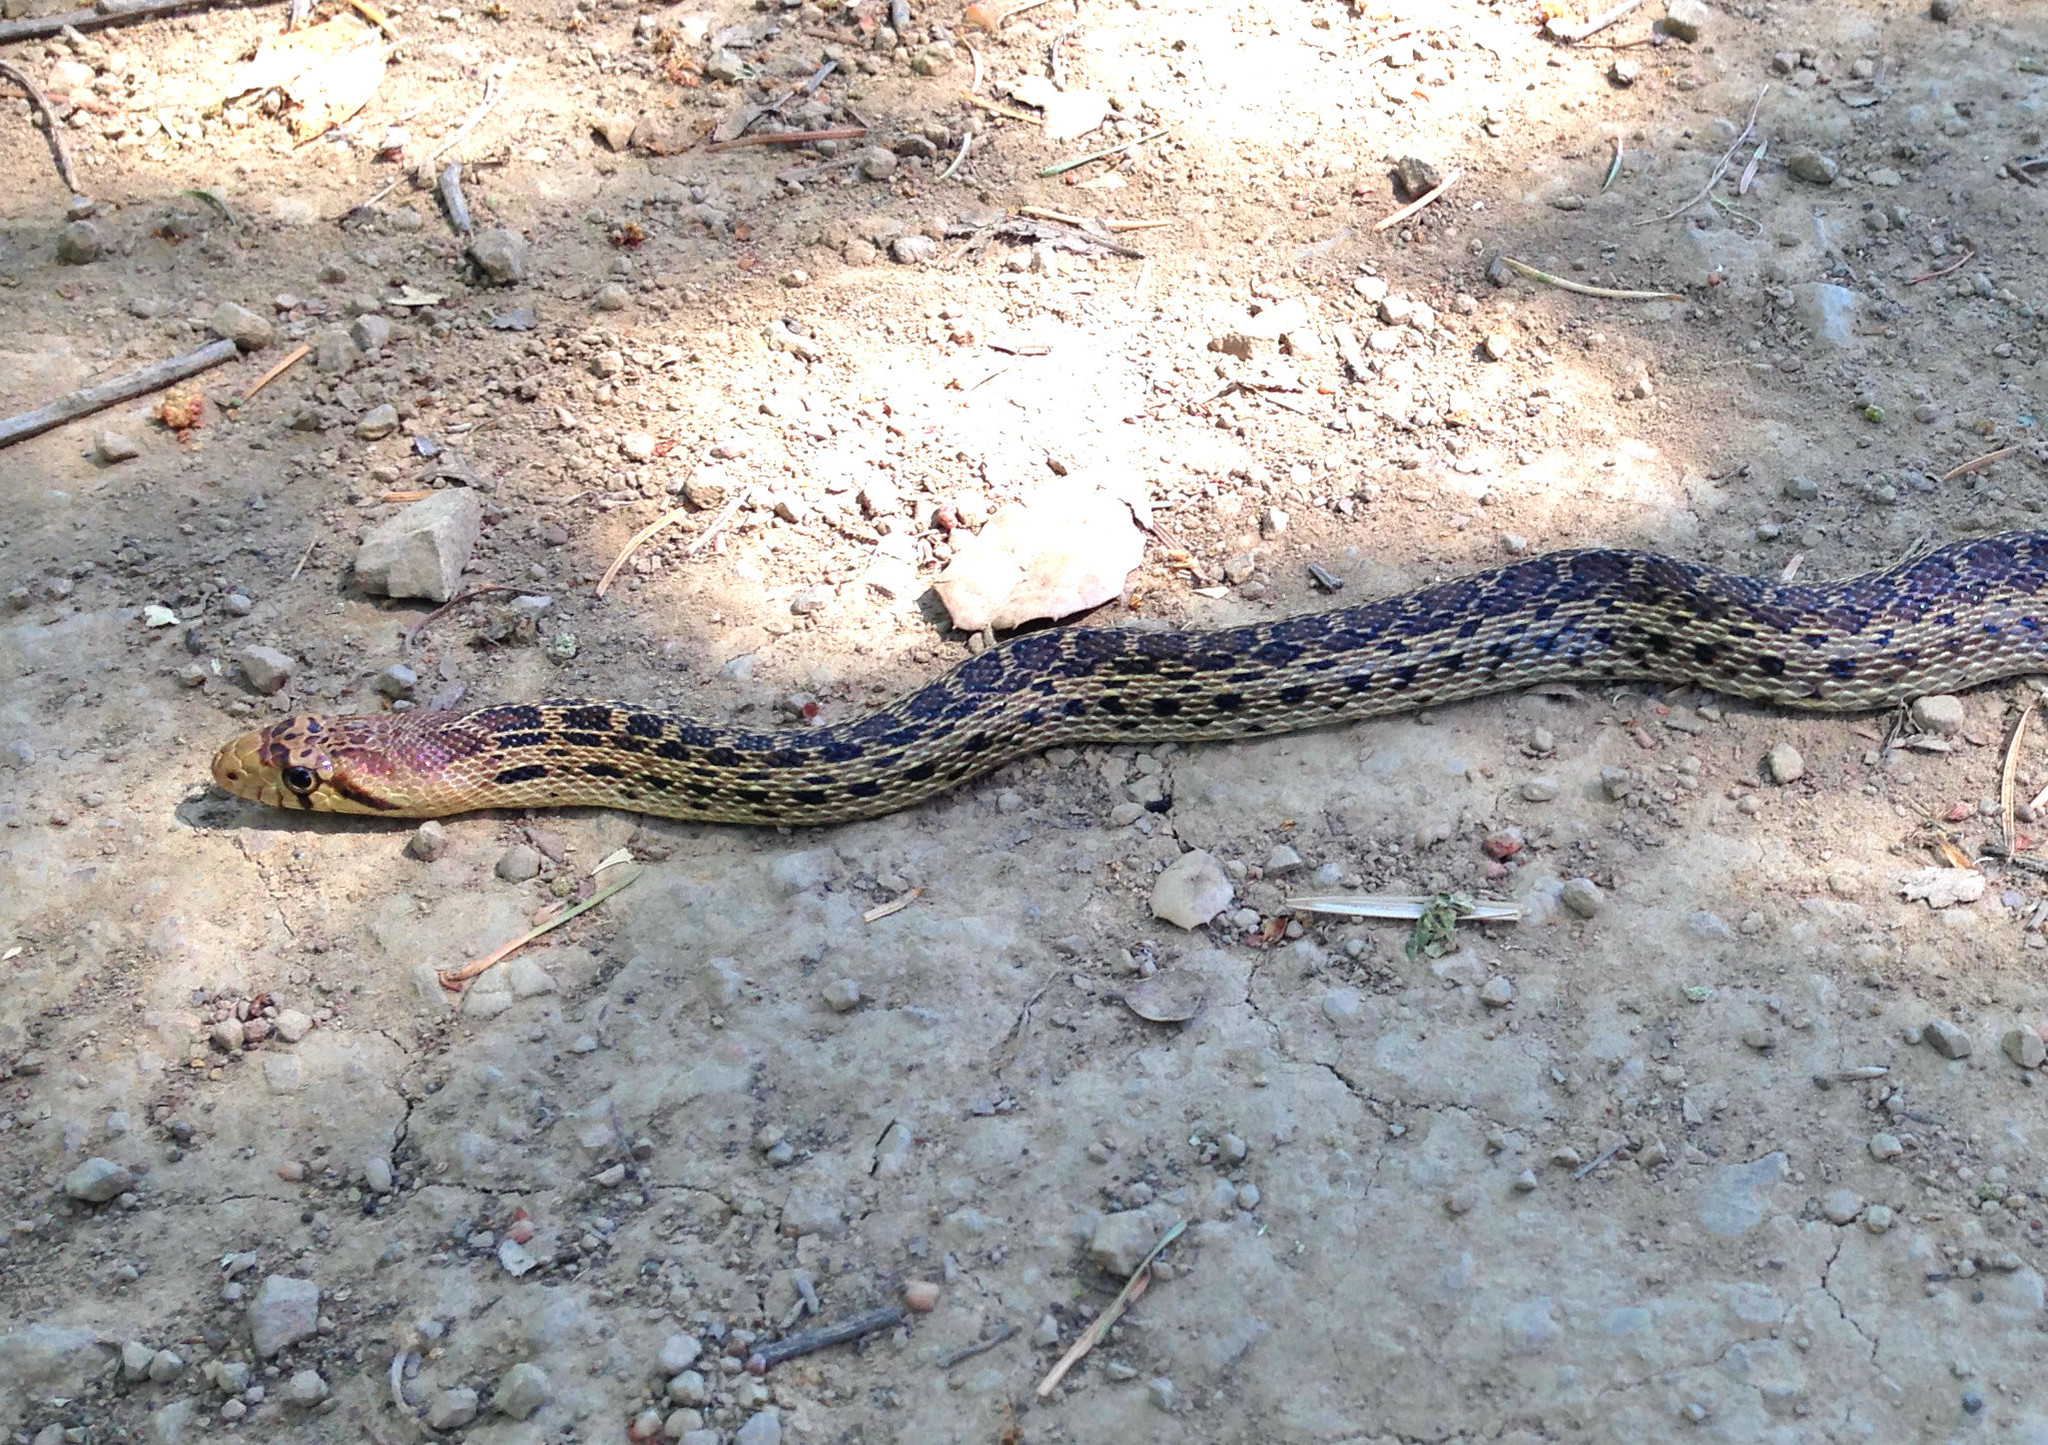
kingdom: Animalia
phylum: Chordata
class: Squamata
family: Colubridae
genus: Pituophis
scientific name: Pituophis catenifer
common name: Gopher snake
